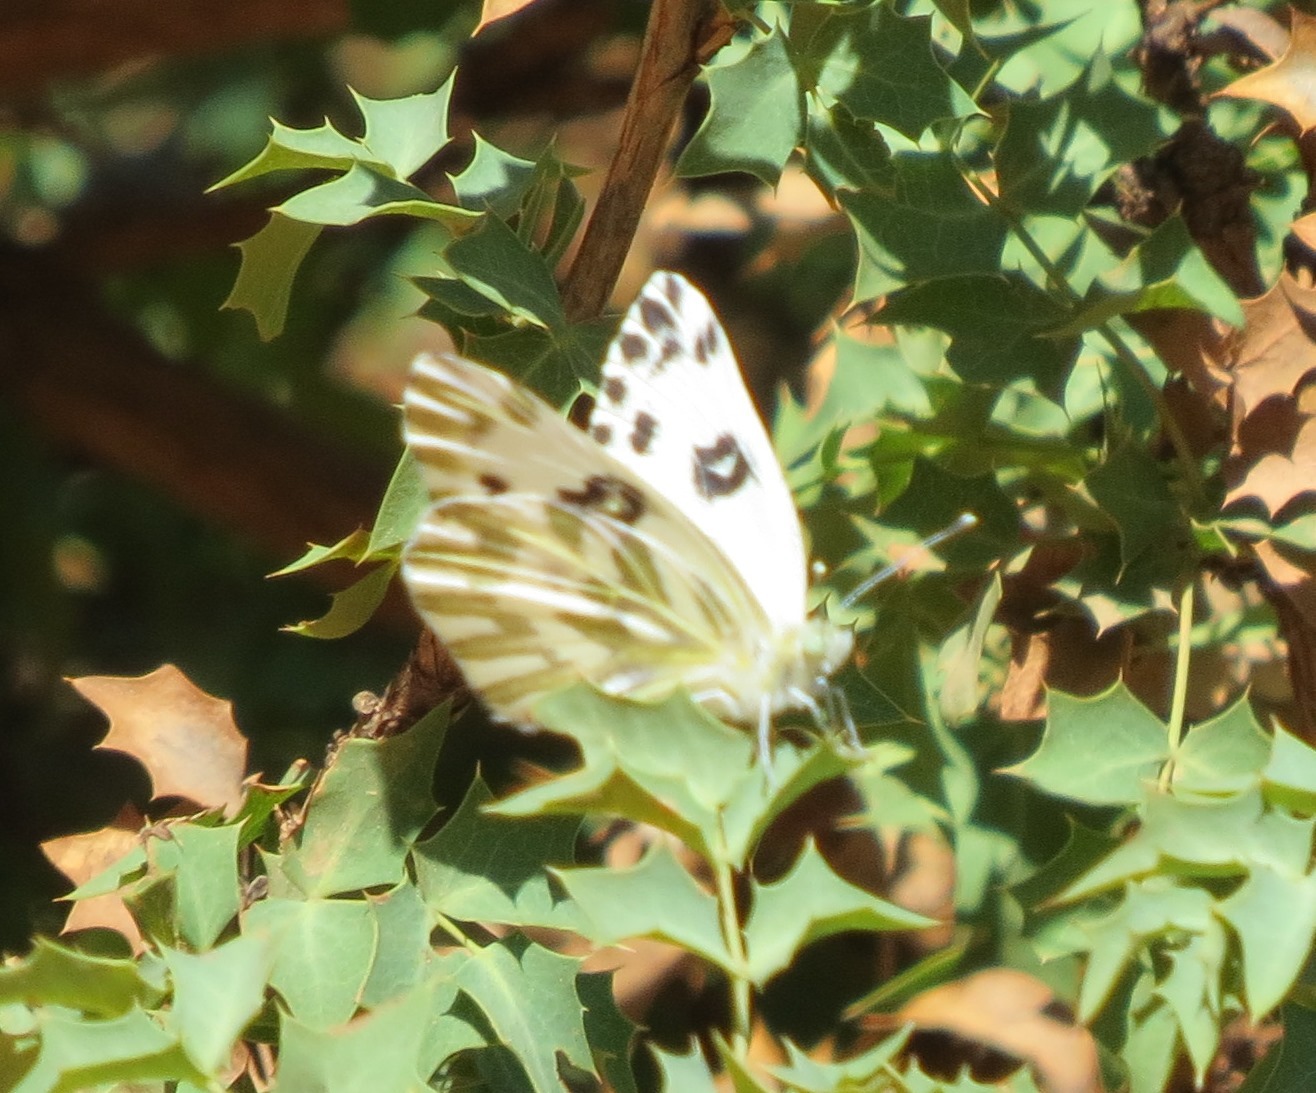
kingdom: Animalia
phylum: Arthropoda
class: Insecta
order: Lepidoptera
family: Pieridae
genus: Pontia
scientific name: Pontia beckerii
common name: Becker's white
